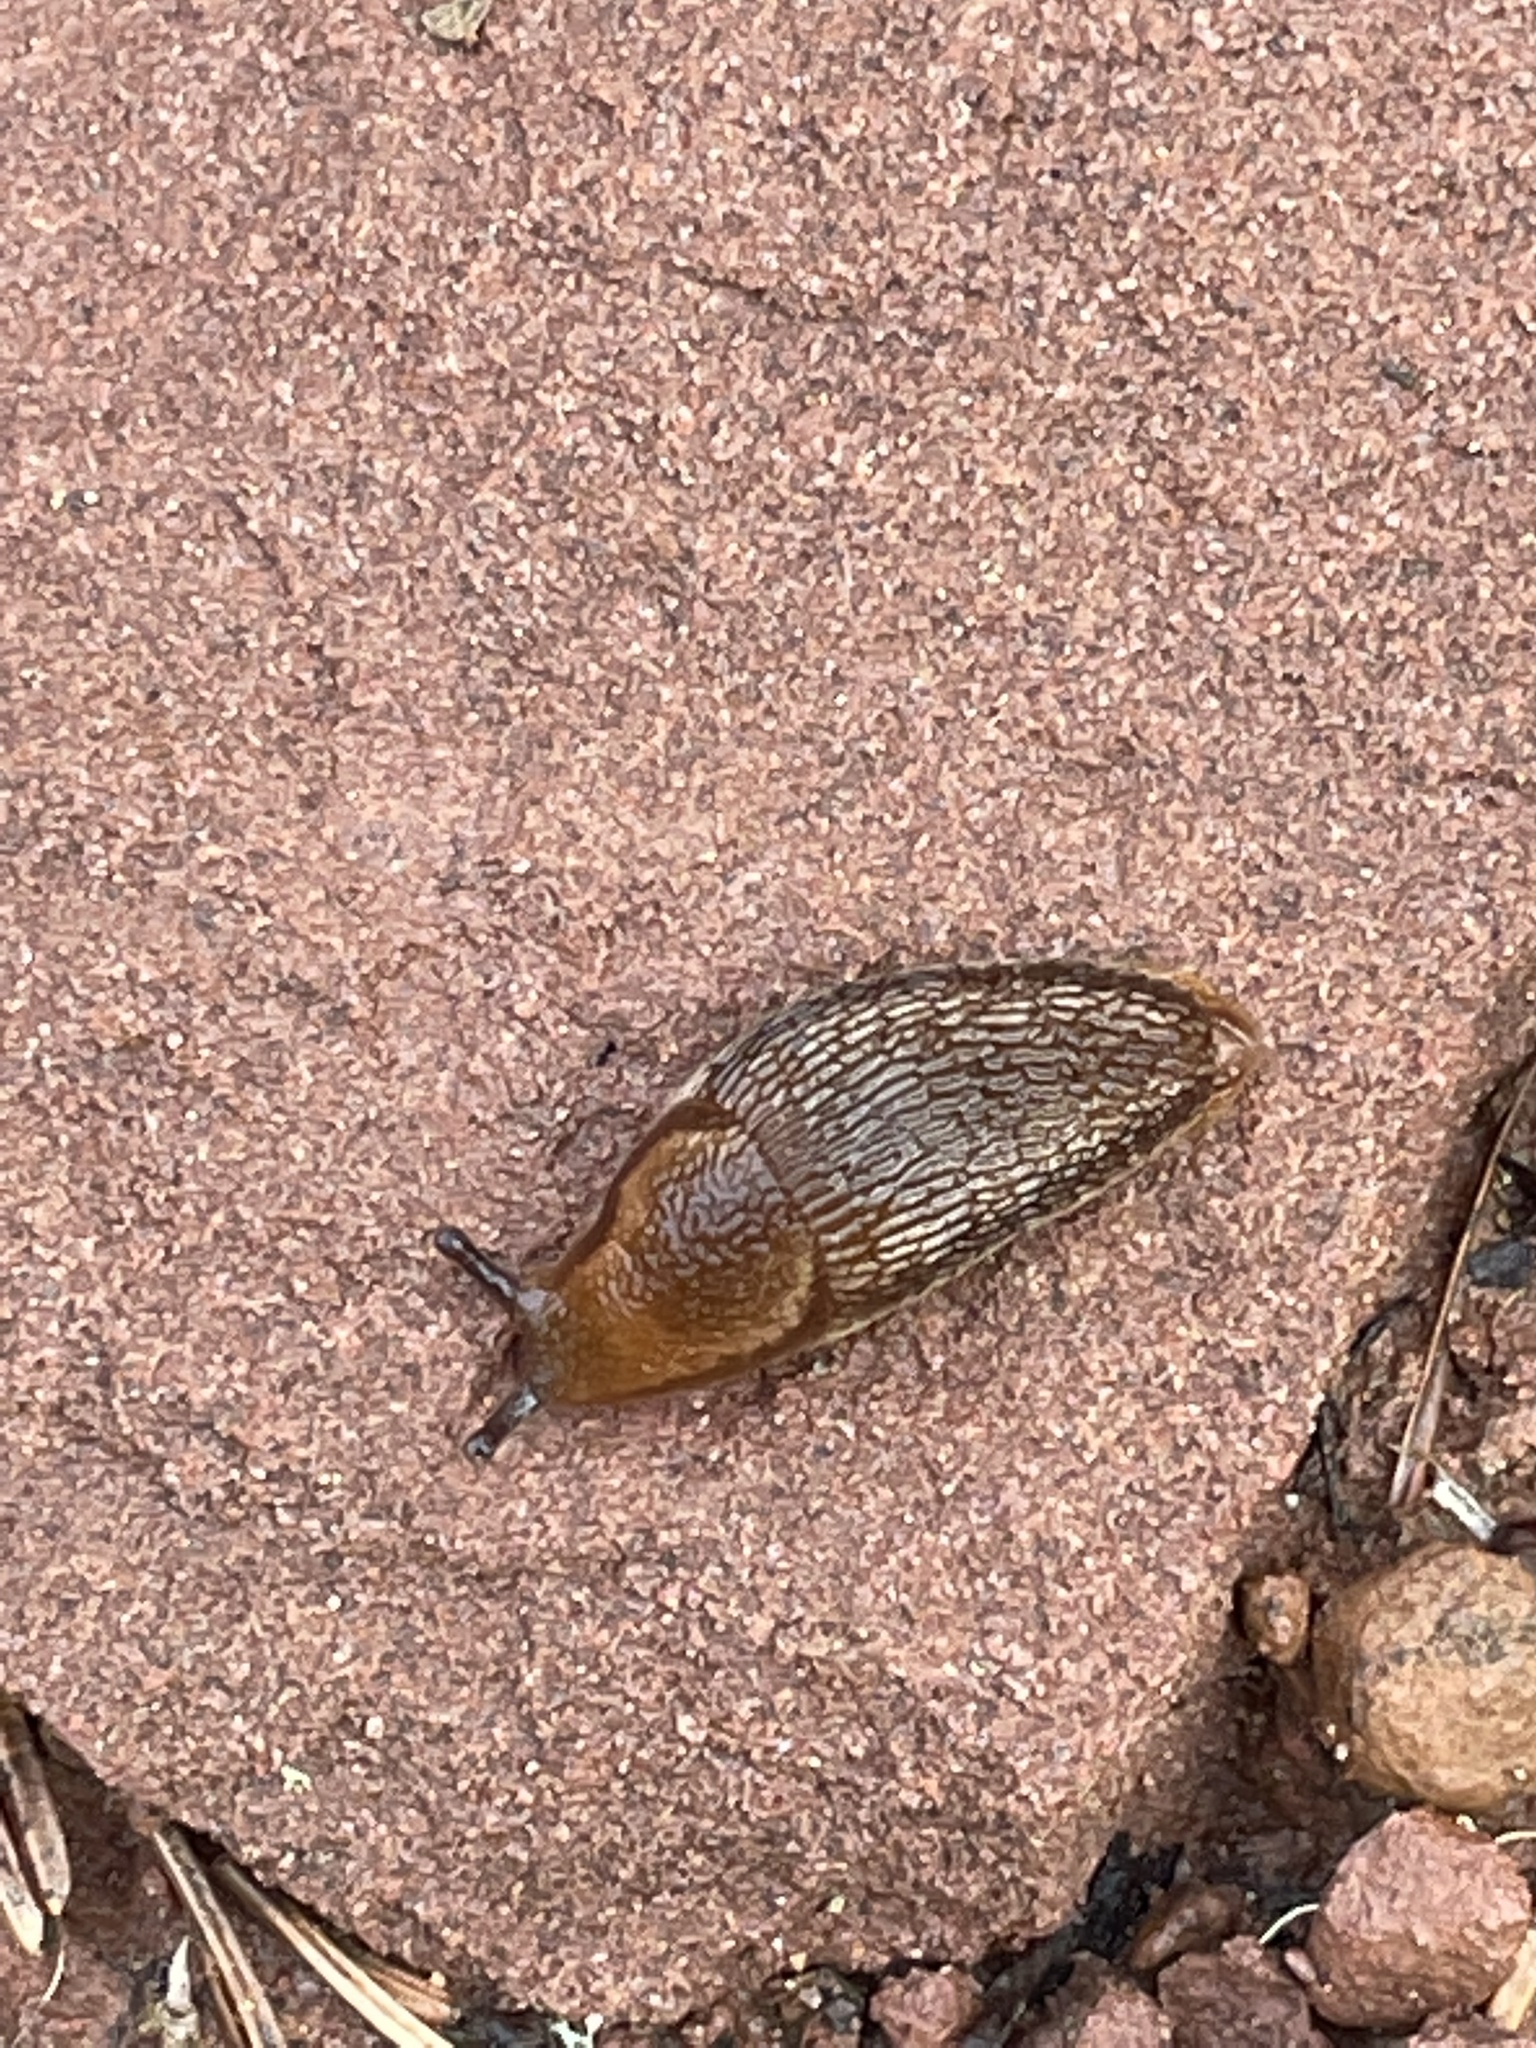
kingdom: Animalia
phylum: Mollusca
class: Gastropoda
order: Stylommatophora
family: Arionidae
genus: Arion
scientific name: Arion subfuscus
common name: Dusky arion
